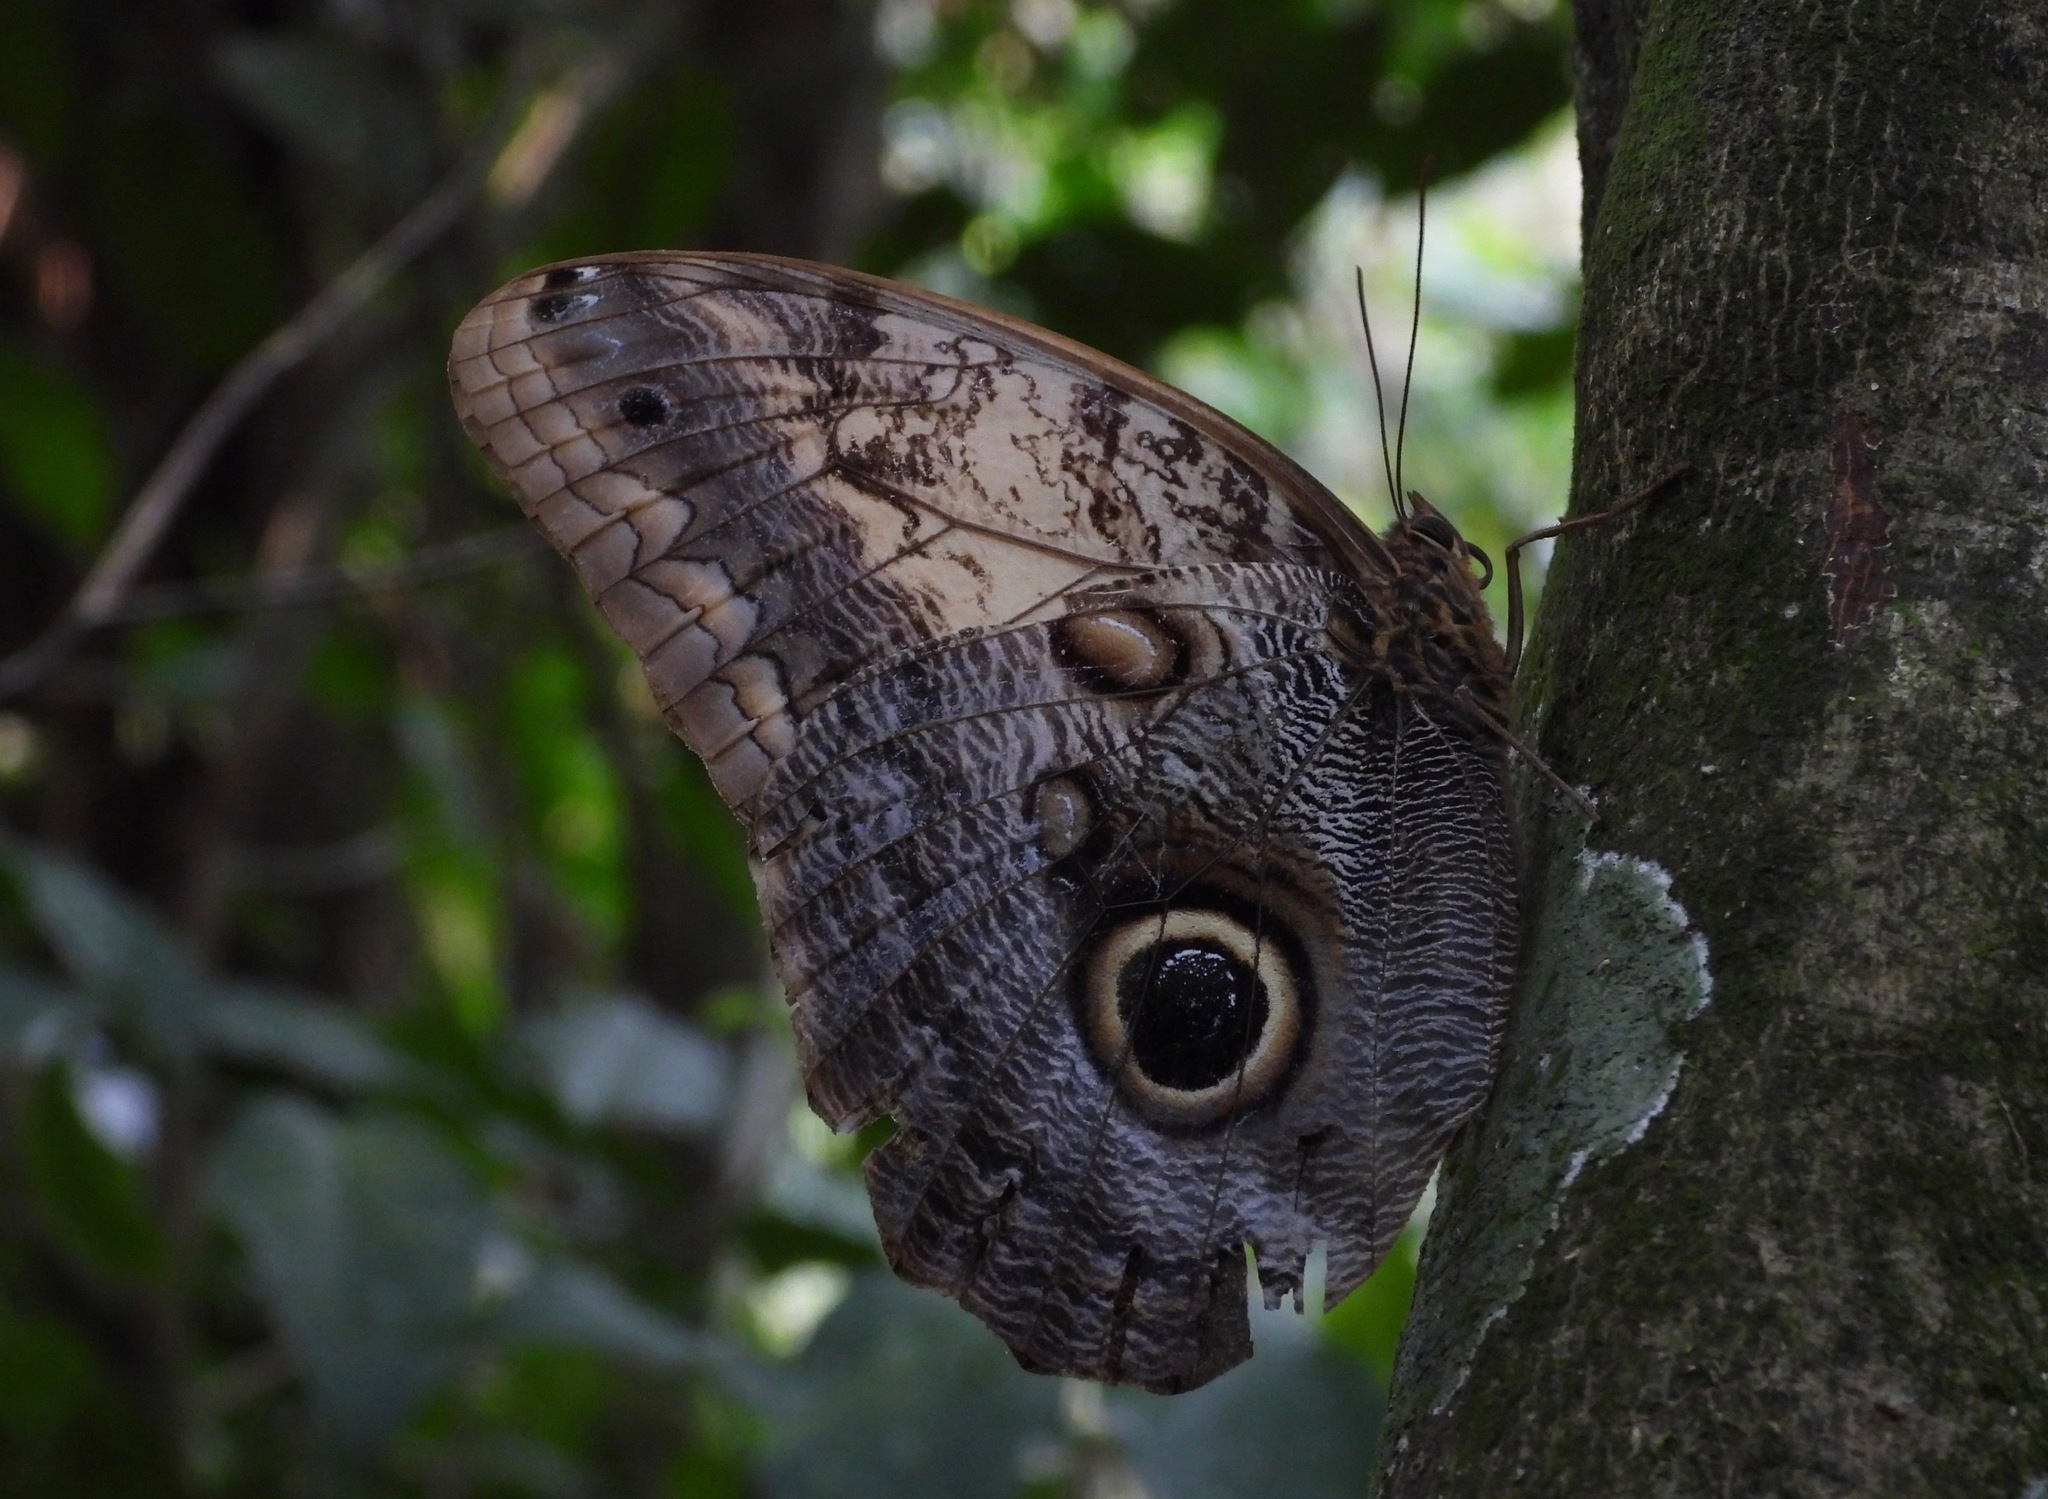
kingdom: Animalia
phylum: Arthropoda
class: Insecta
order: Lepidoptera
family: Nymphalidae
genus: Caligo
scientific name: Caligo telamonius
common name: Pale owl-butterfly
